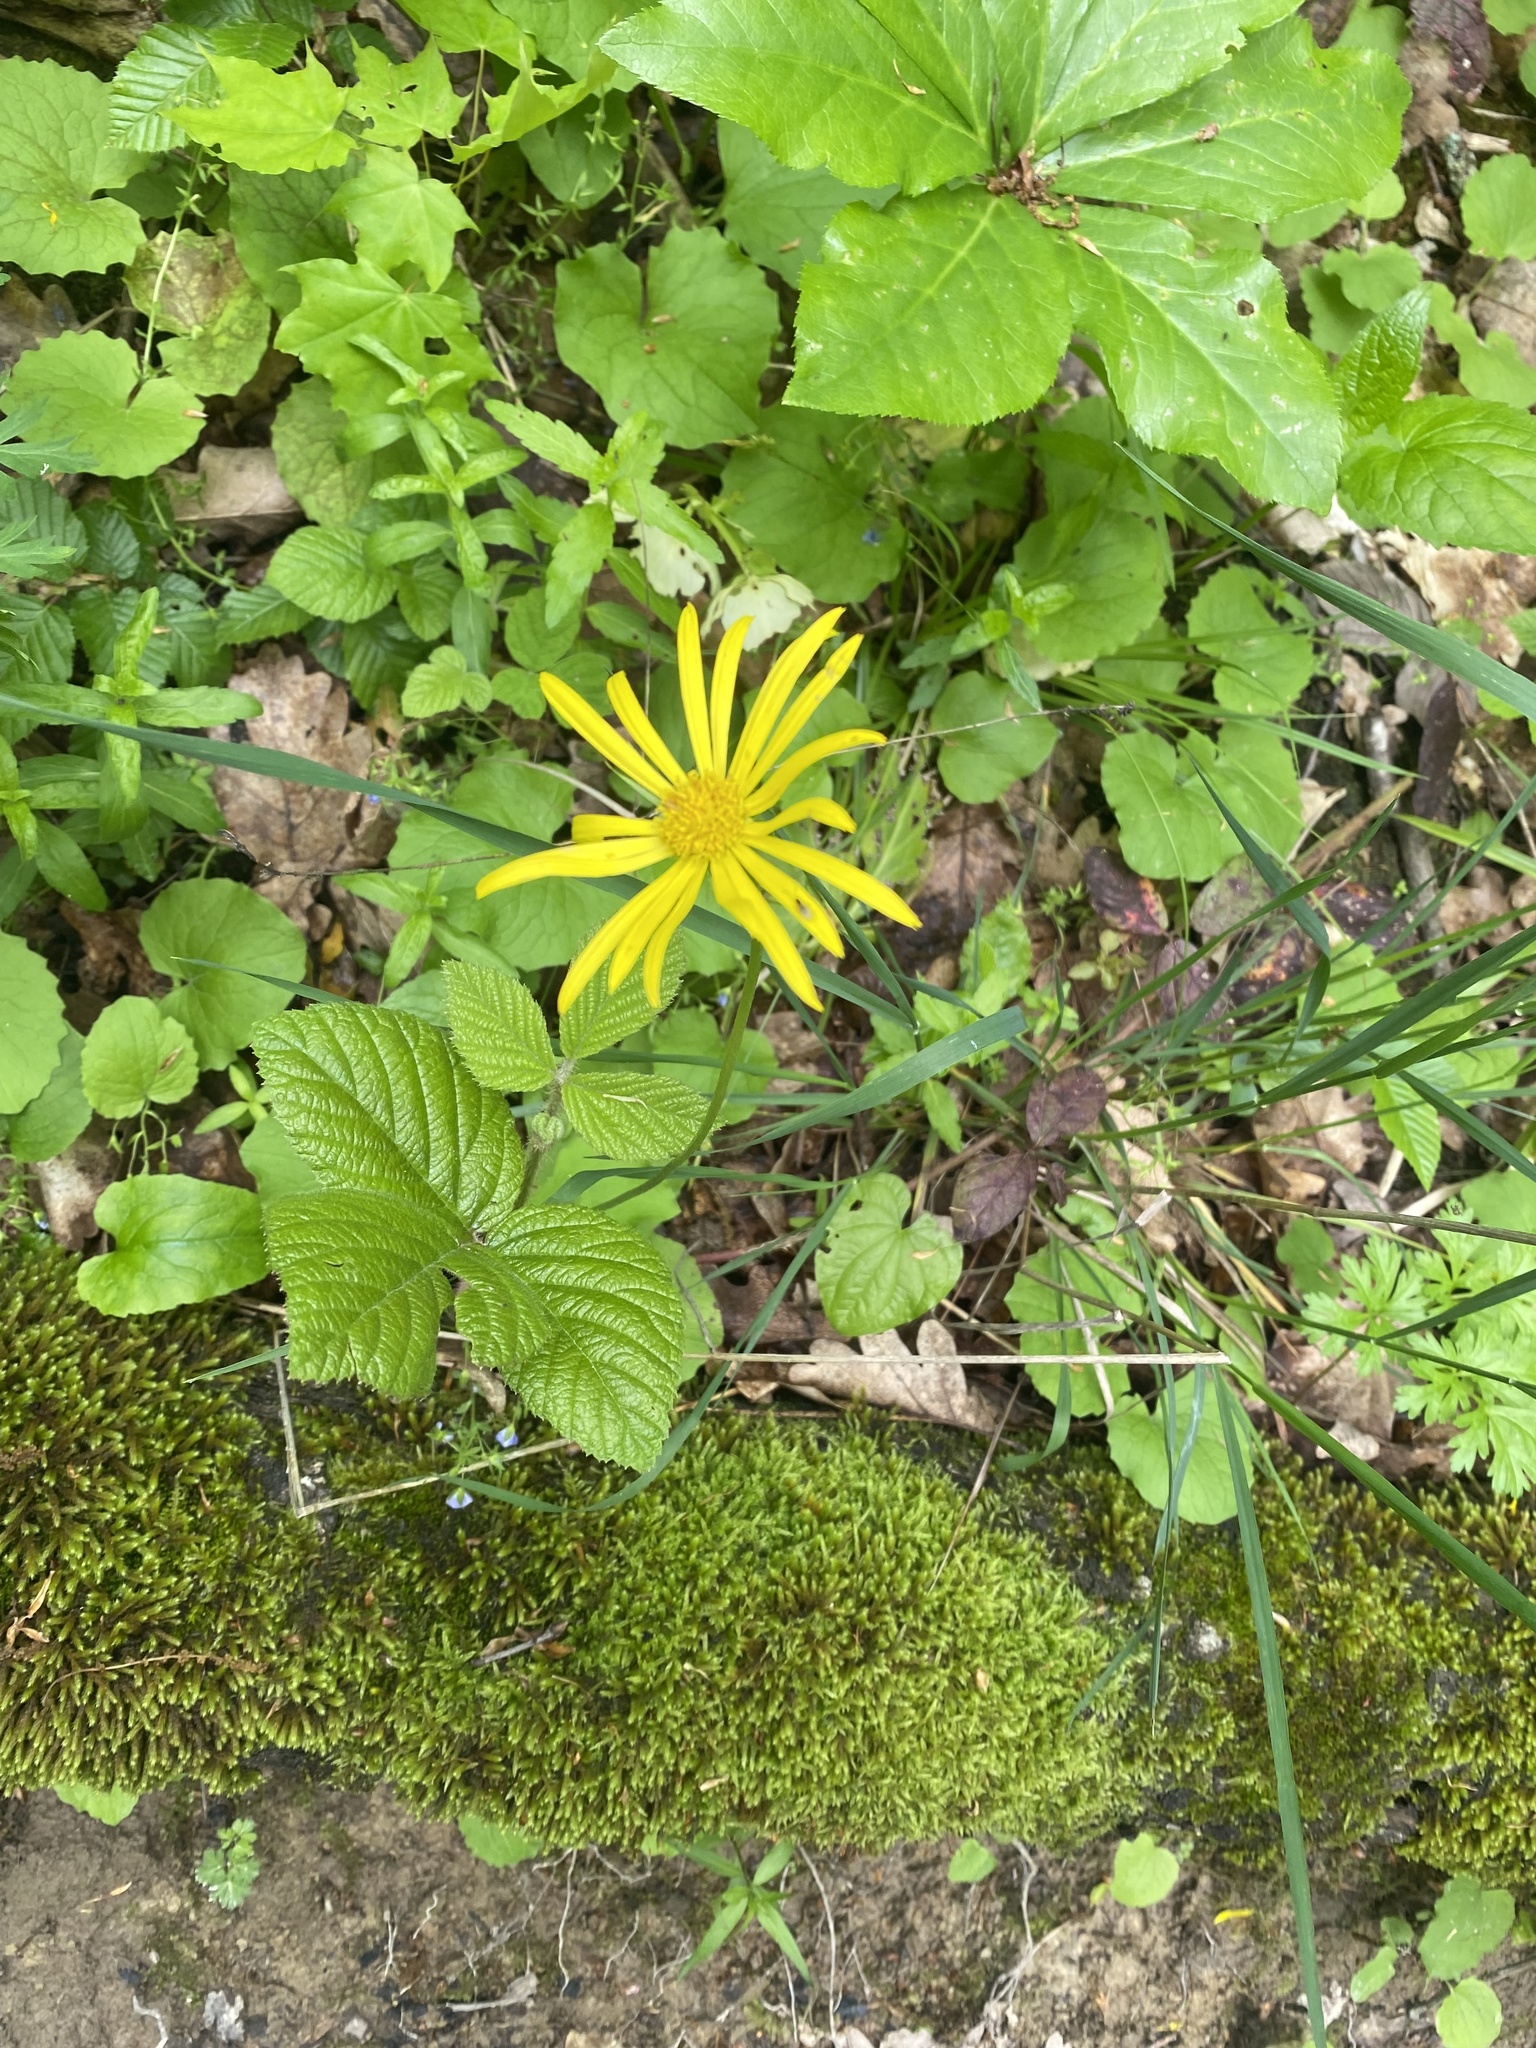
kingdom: Plantae
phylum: Tracheophyta
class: Magnoliopsida
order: Asterales
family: Asteraceae
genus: Doronicum
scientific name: Doronicum
